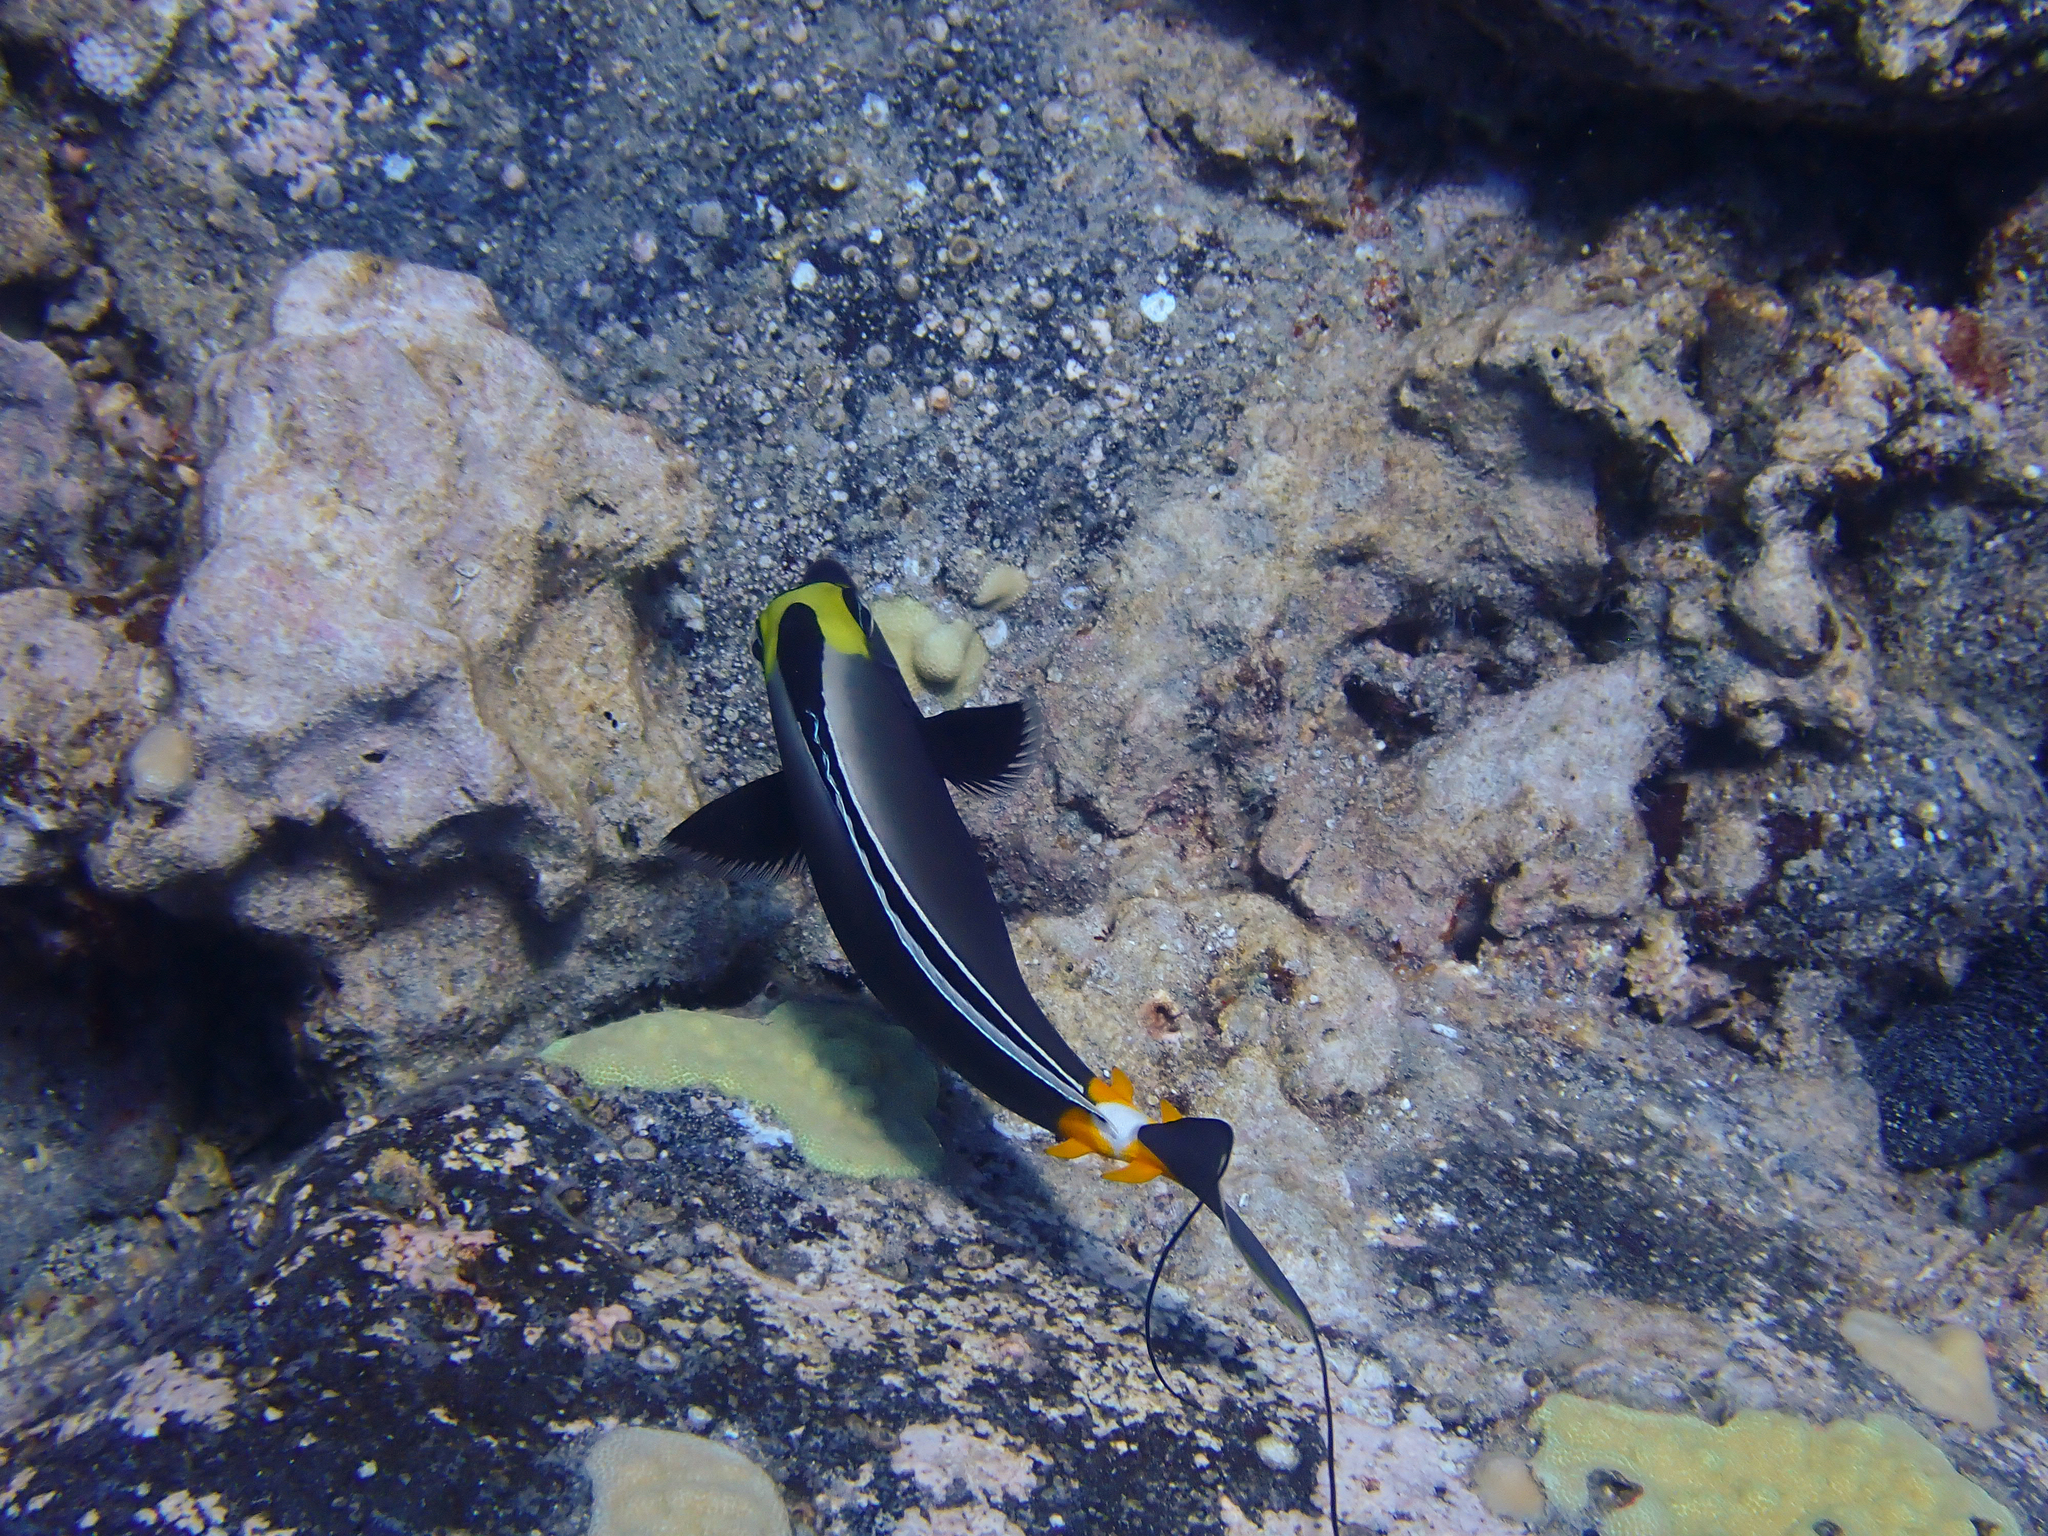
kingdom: Animalia
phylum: Chordata
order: Perciformes
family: Acanthuridae
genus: Naso
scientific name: Naso lituratus
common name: Orangespine unicornfish
